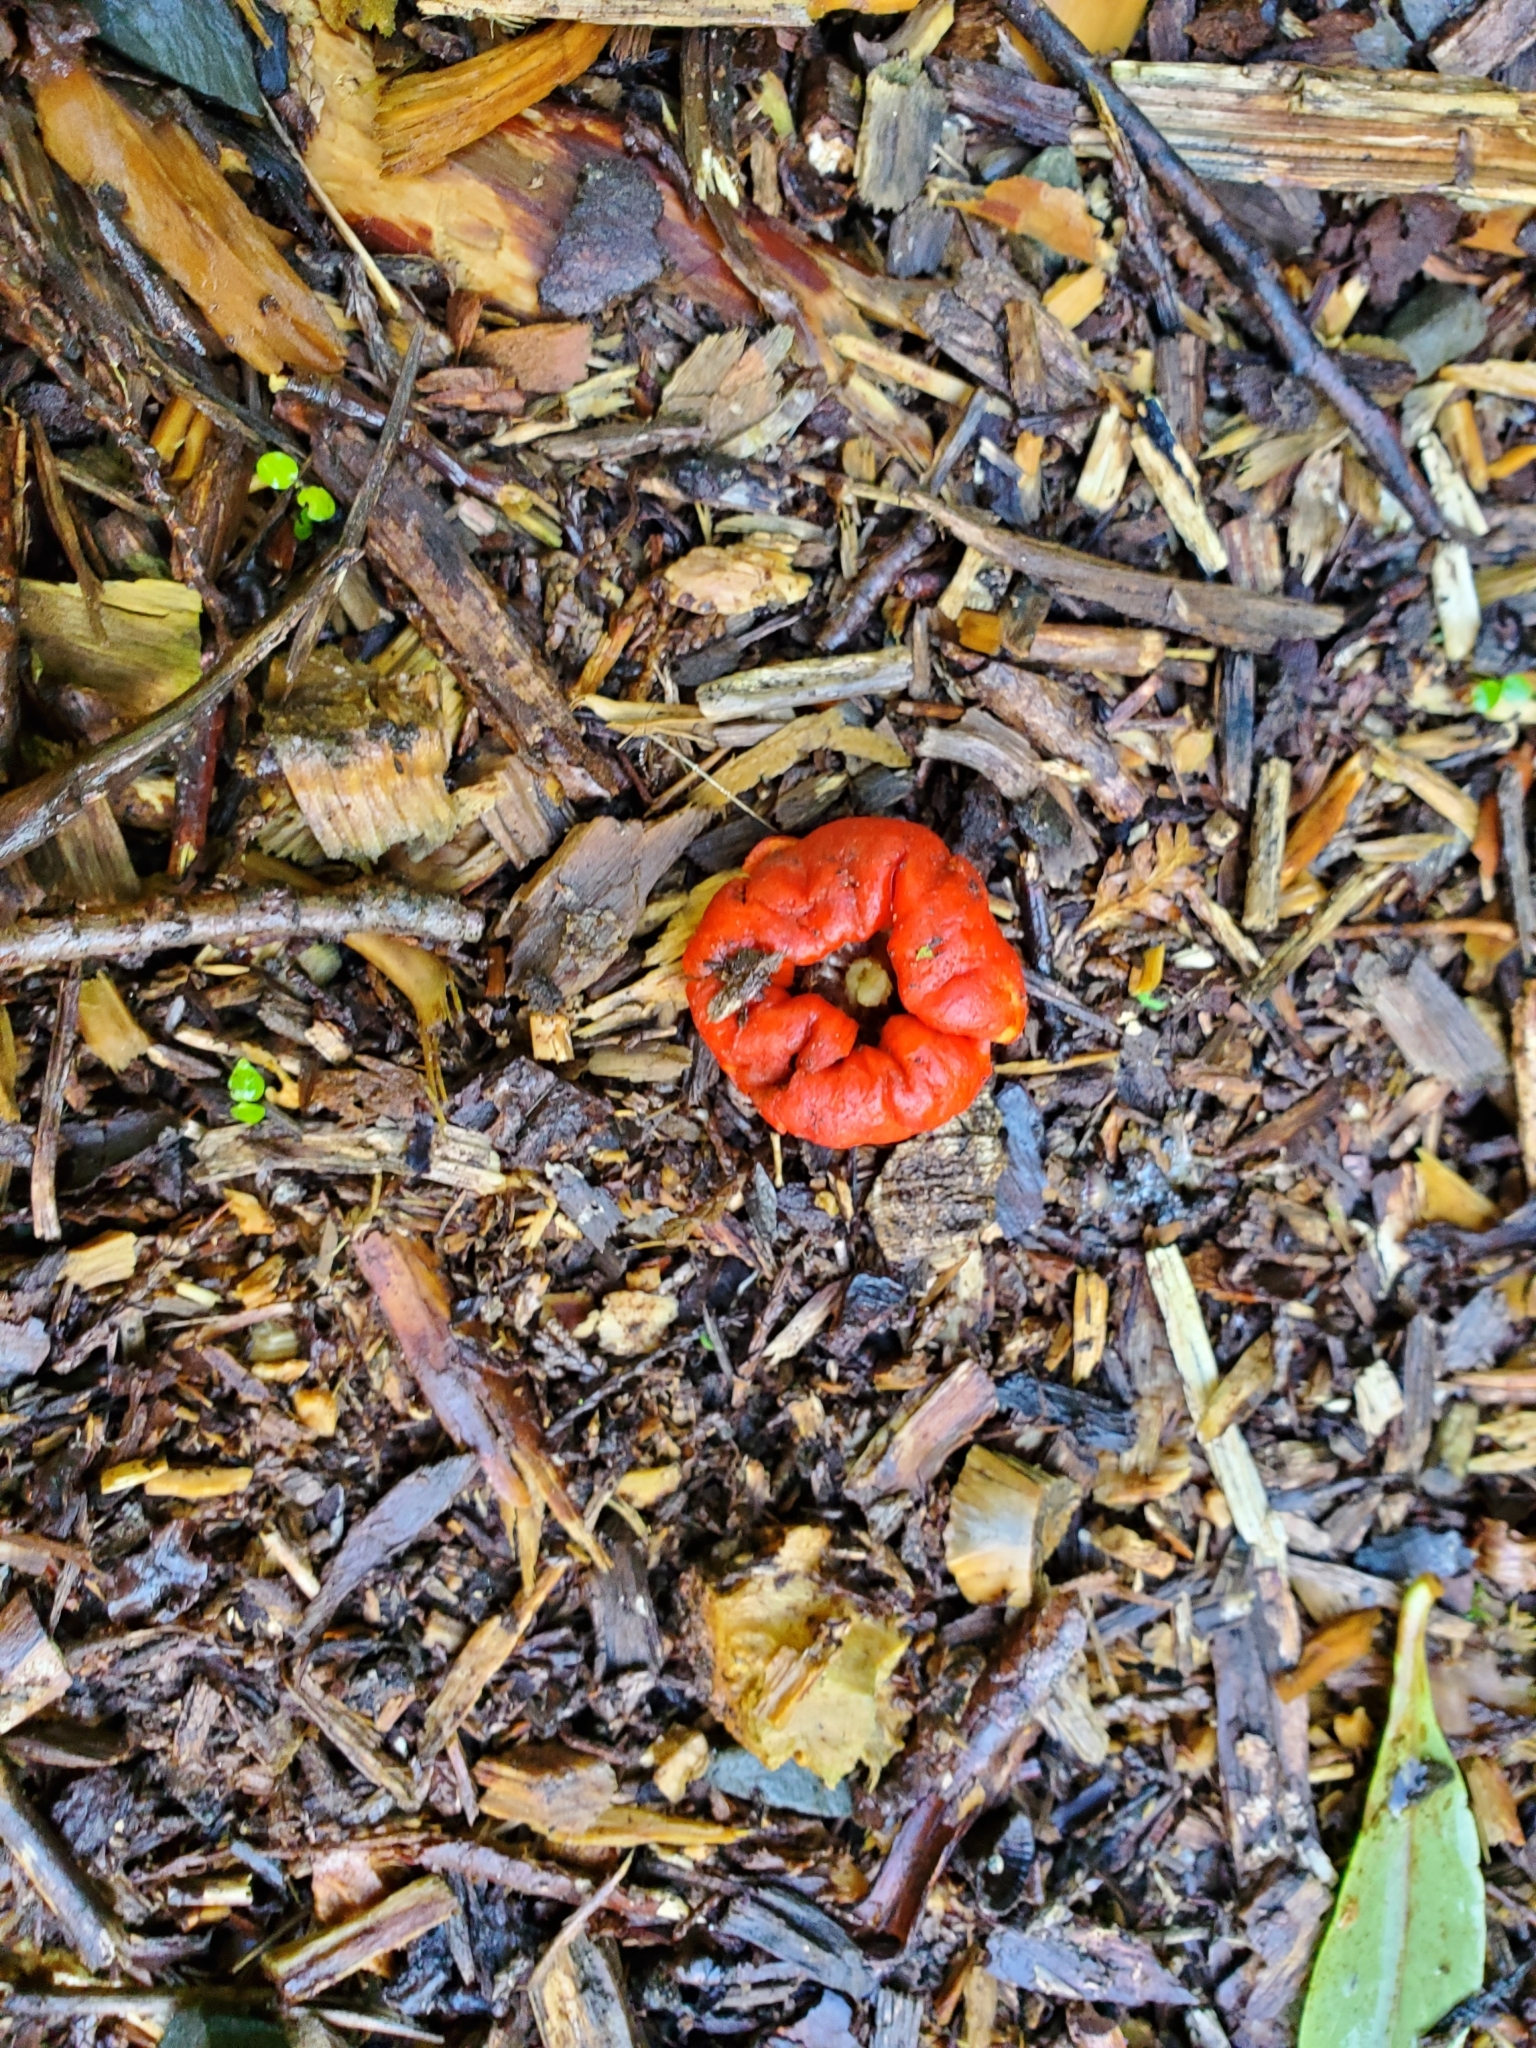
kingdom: Fungi
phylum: Basidiomycota
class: Agaricomycetes
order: Agaricales
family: Strophariaceae
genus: Leratiomyces
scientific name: Leratiomyces erythrocephalus
